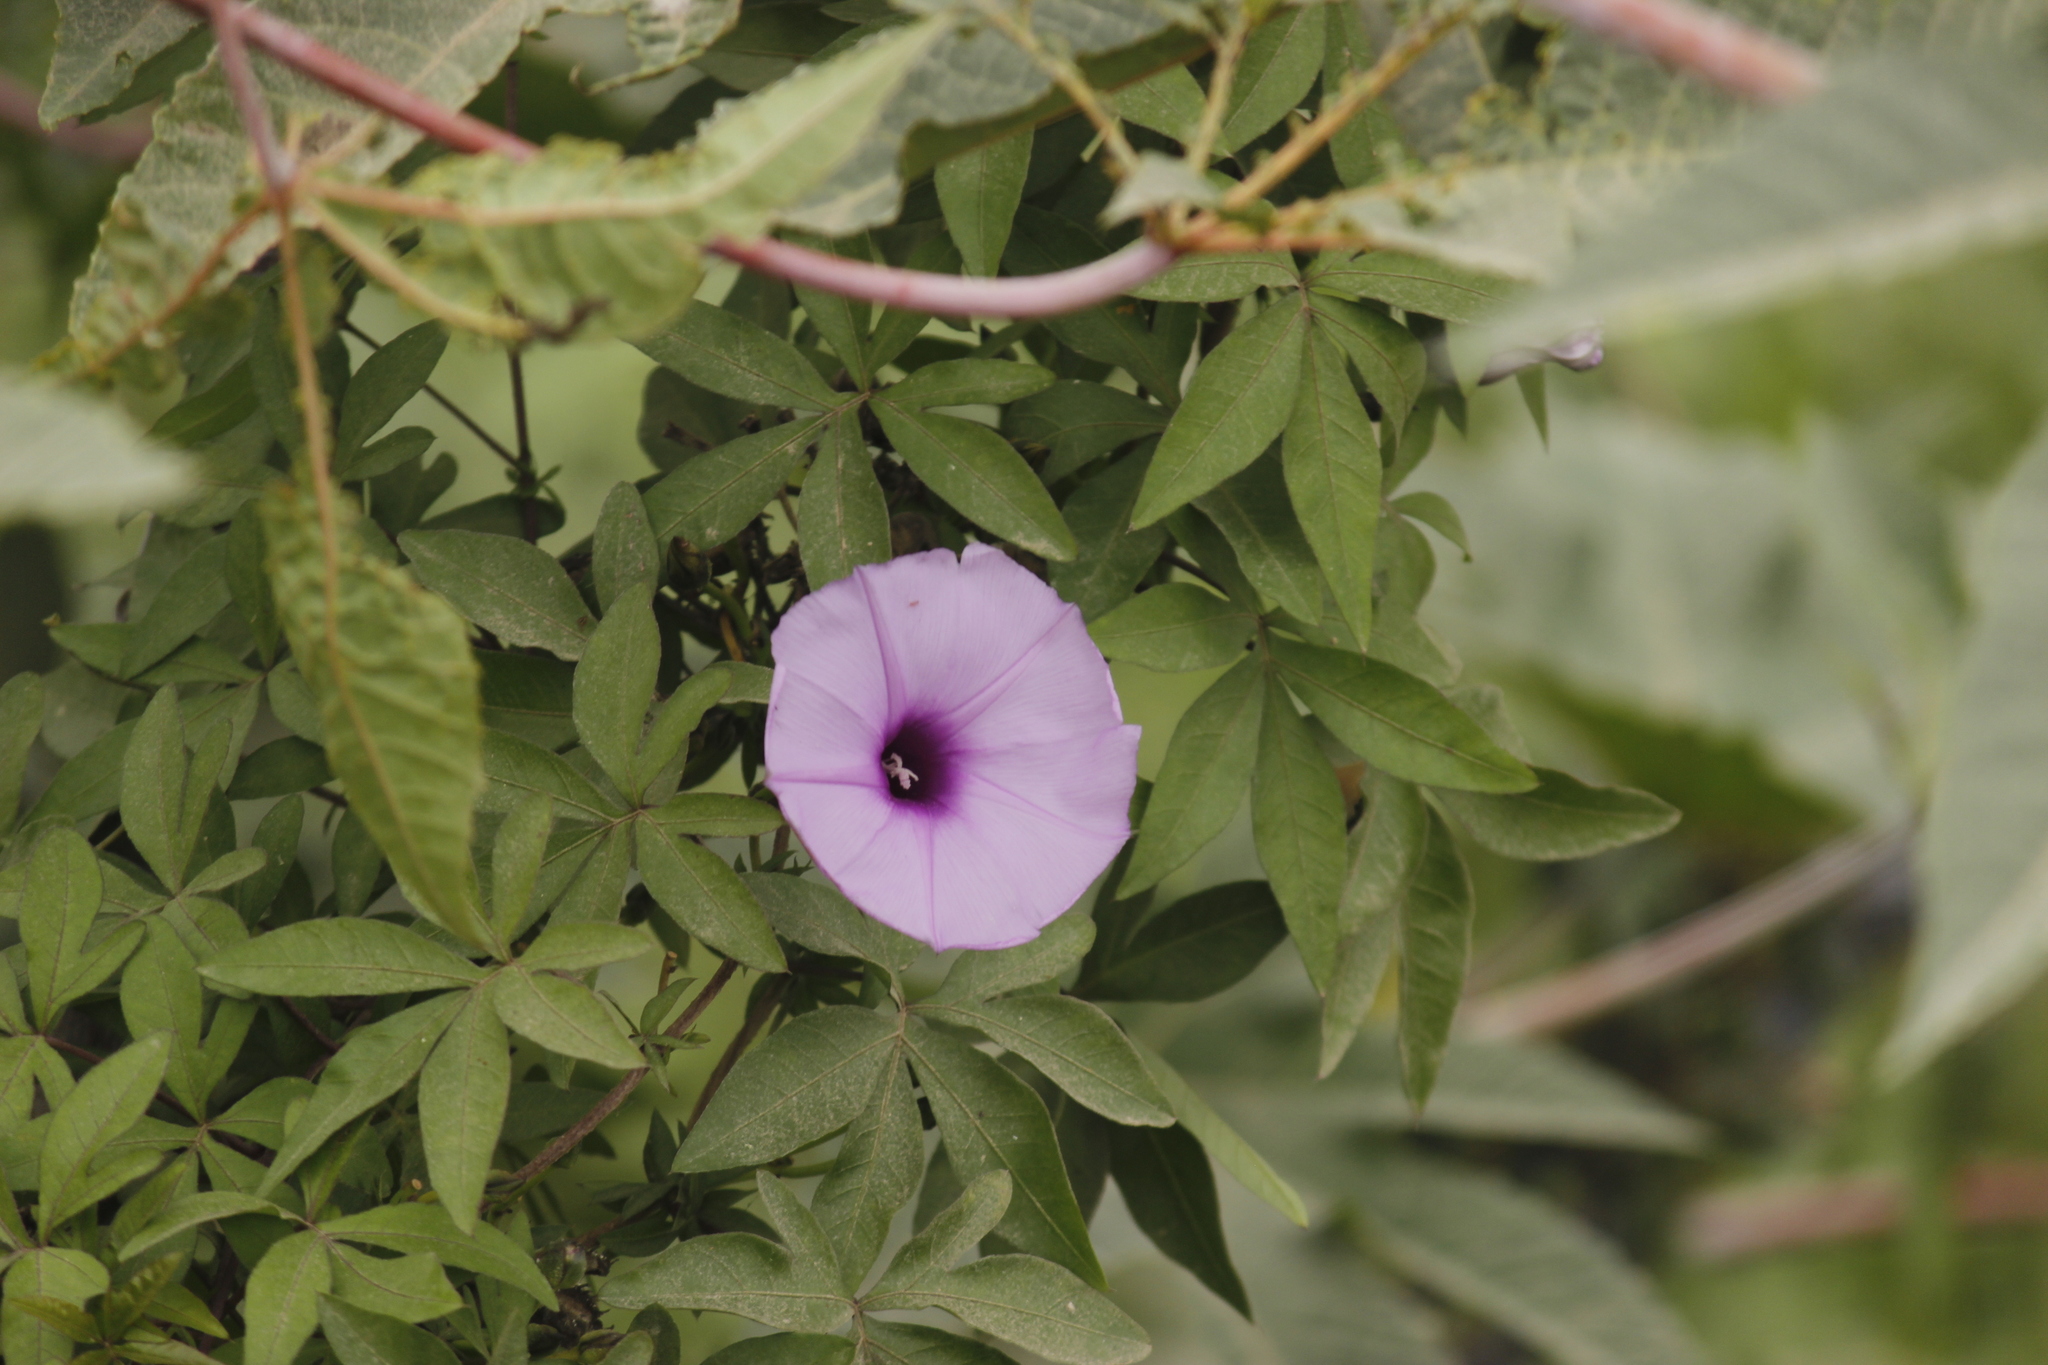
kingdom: Plantae
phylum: Tracheophyta
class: Magnoliopsida
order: Solanales
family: Convolvulaceae
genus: Ipomoea
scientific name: Ipomoea cairica
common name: Mile a minute vine
